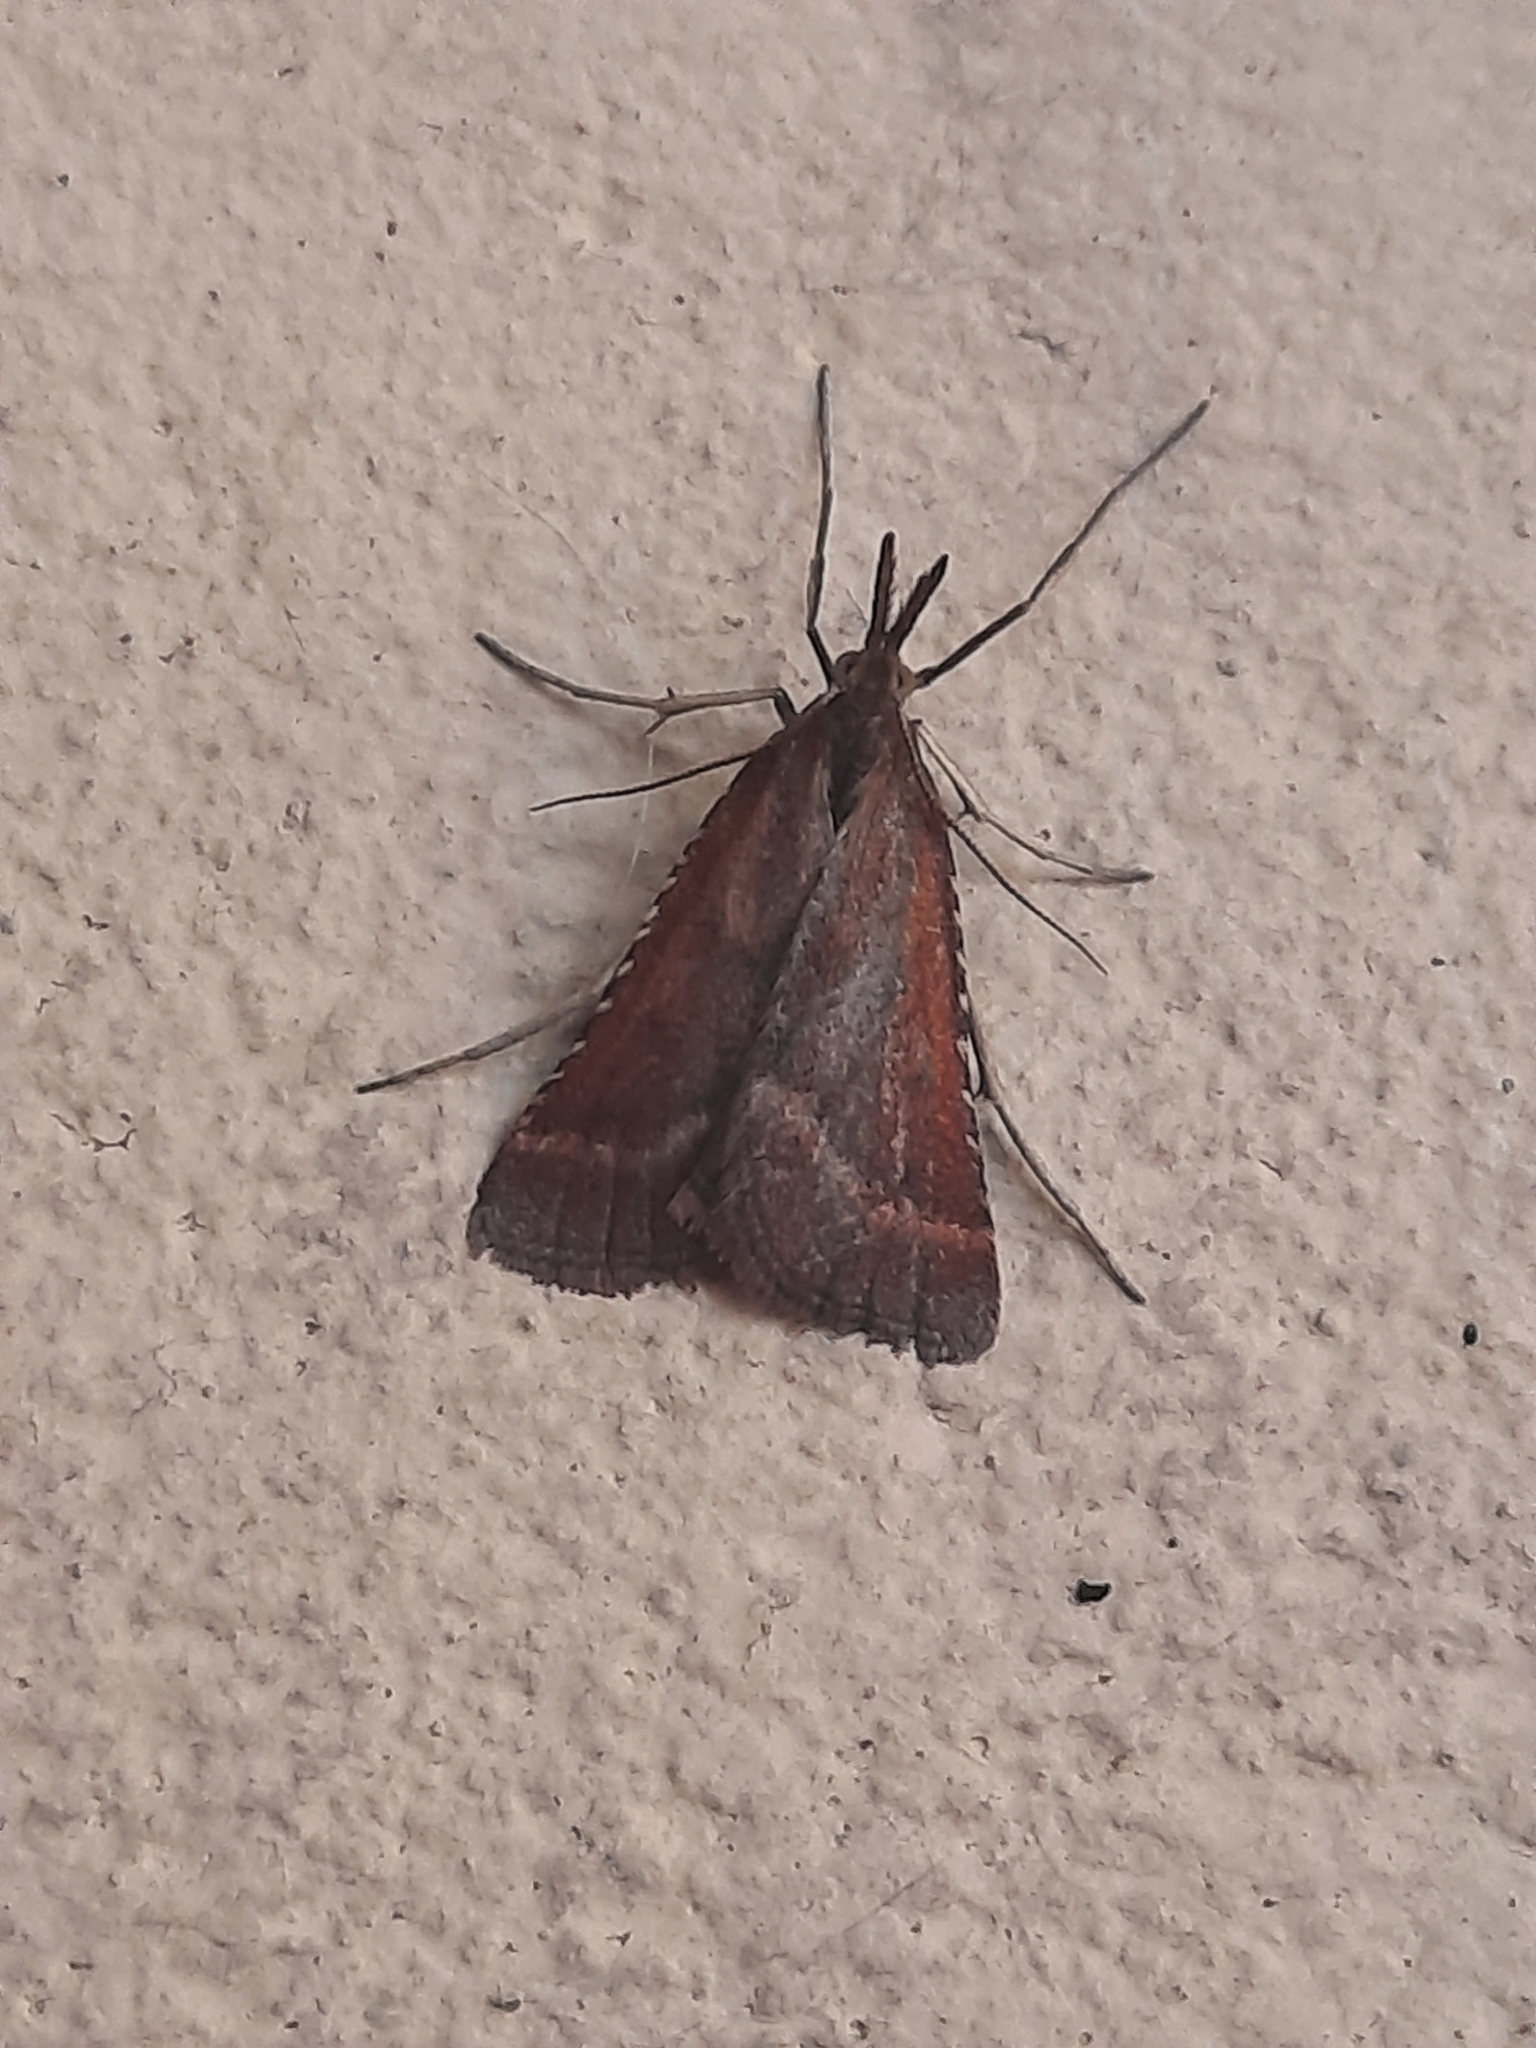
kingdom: Animalia
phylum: Arthropoda
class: Insecta
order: Lepidoptera
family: Pyralidae
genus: Synaphe
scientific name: Synaphe punctalis
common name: Long-legged tabby
